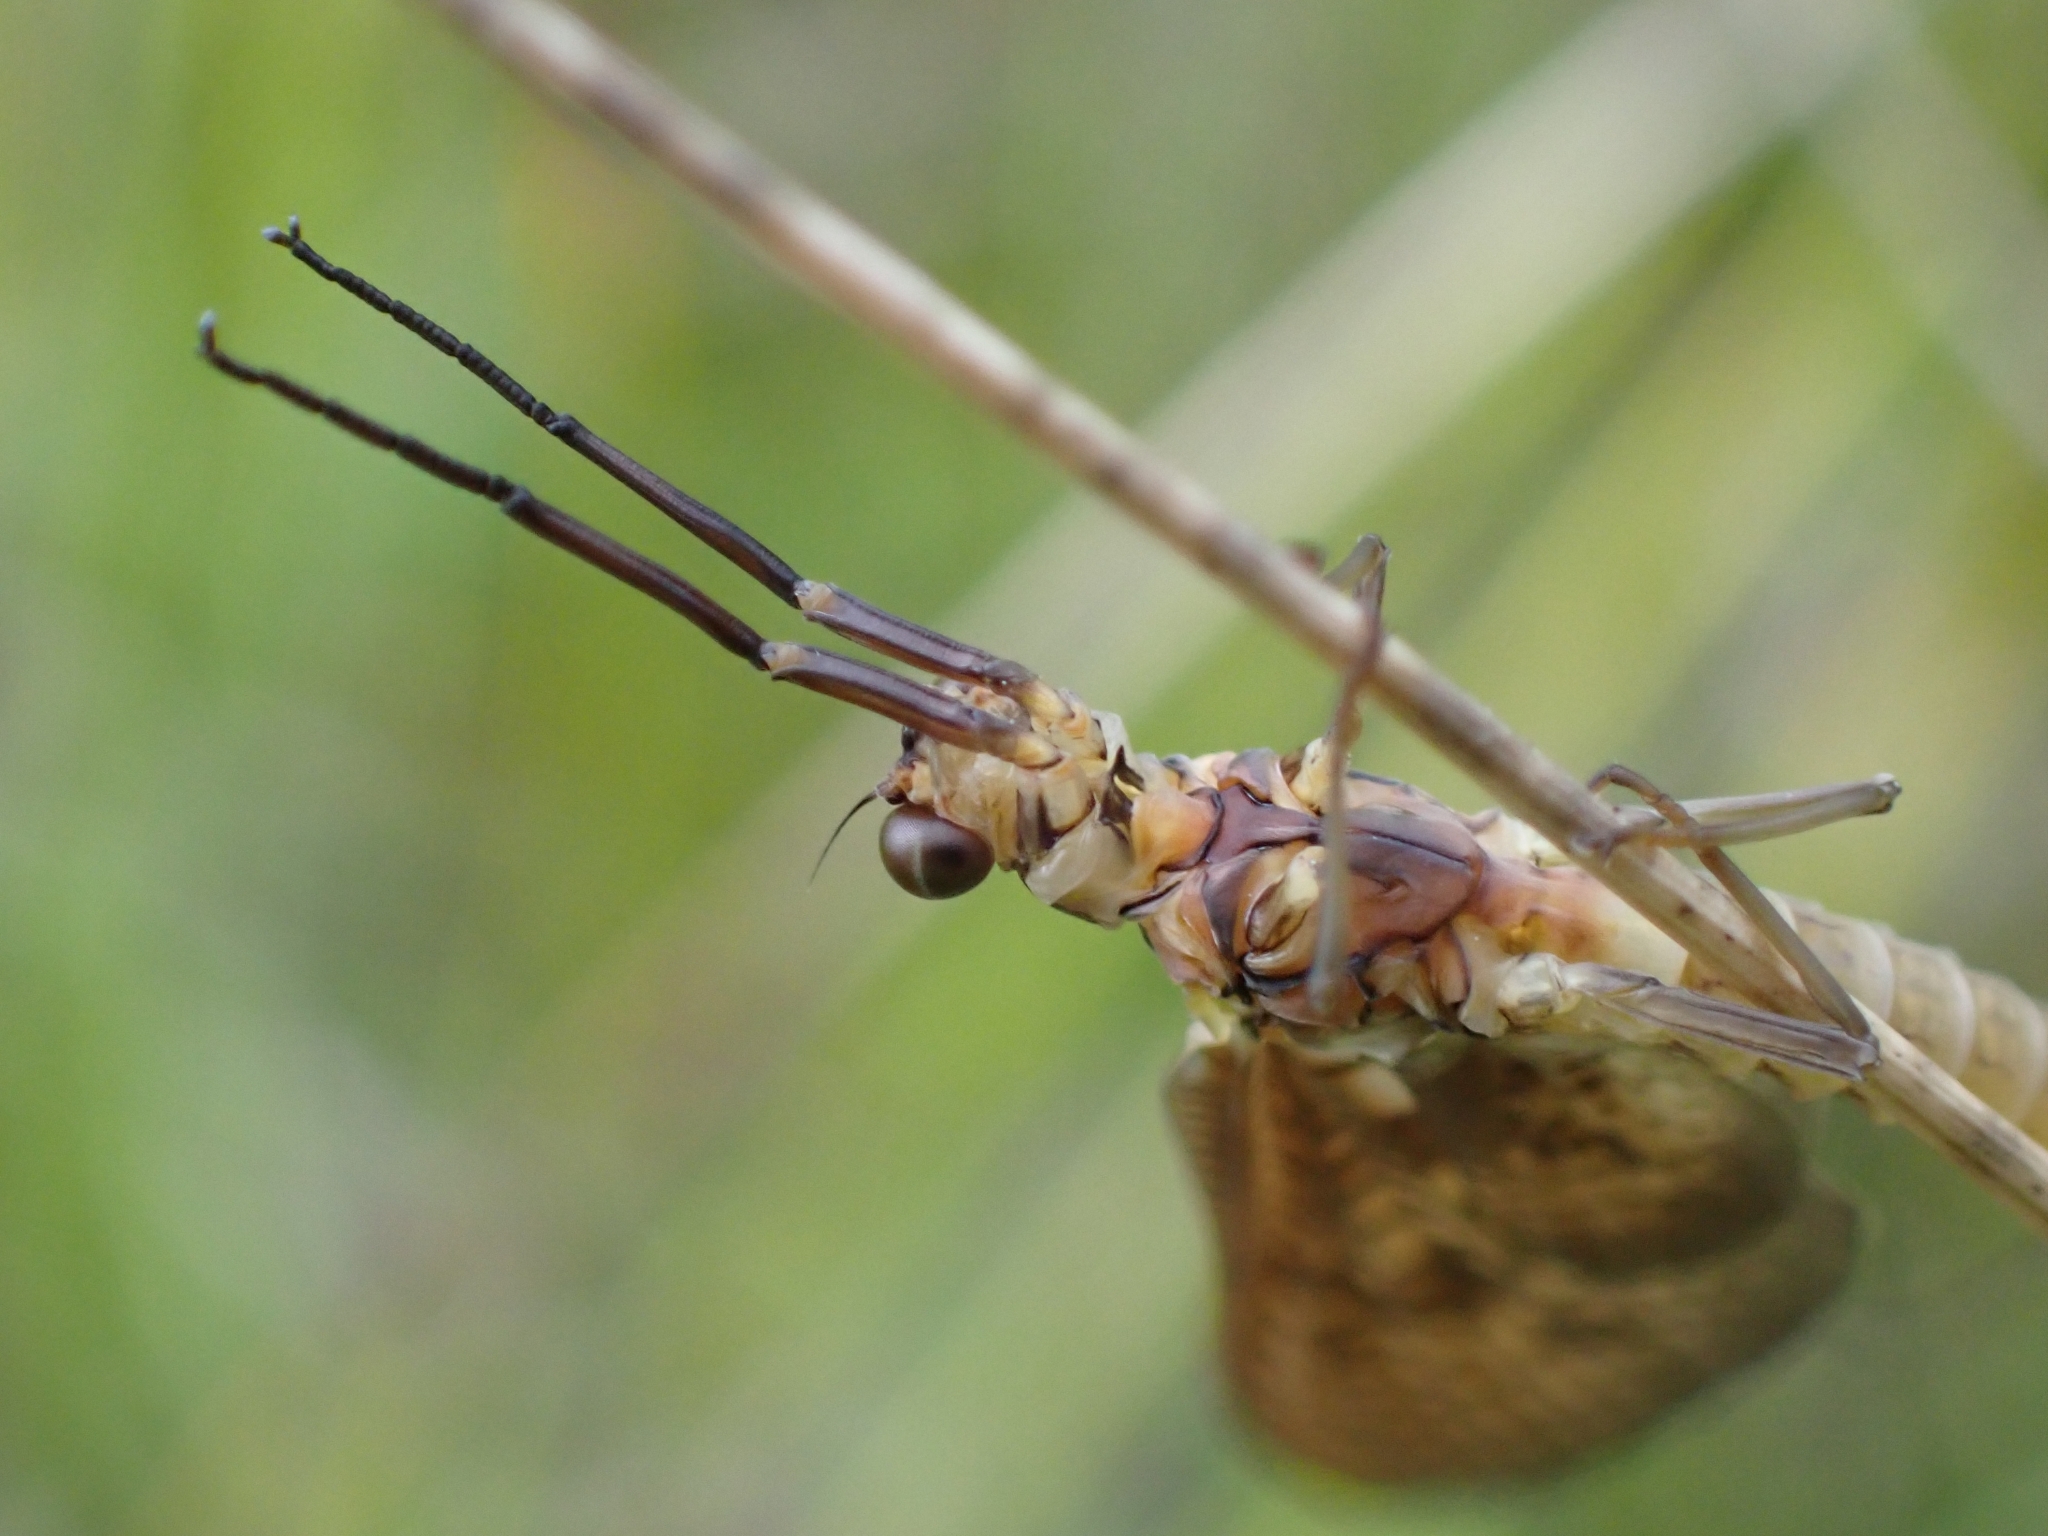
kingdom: Animalia
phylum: Arthropoda
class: Insecta
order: Ephemeroptera
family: Ephemeridae
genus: Ephemera
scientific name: Ephemera vulgata
